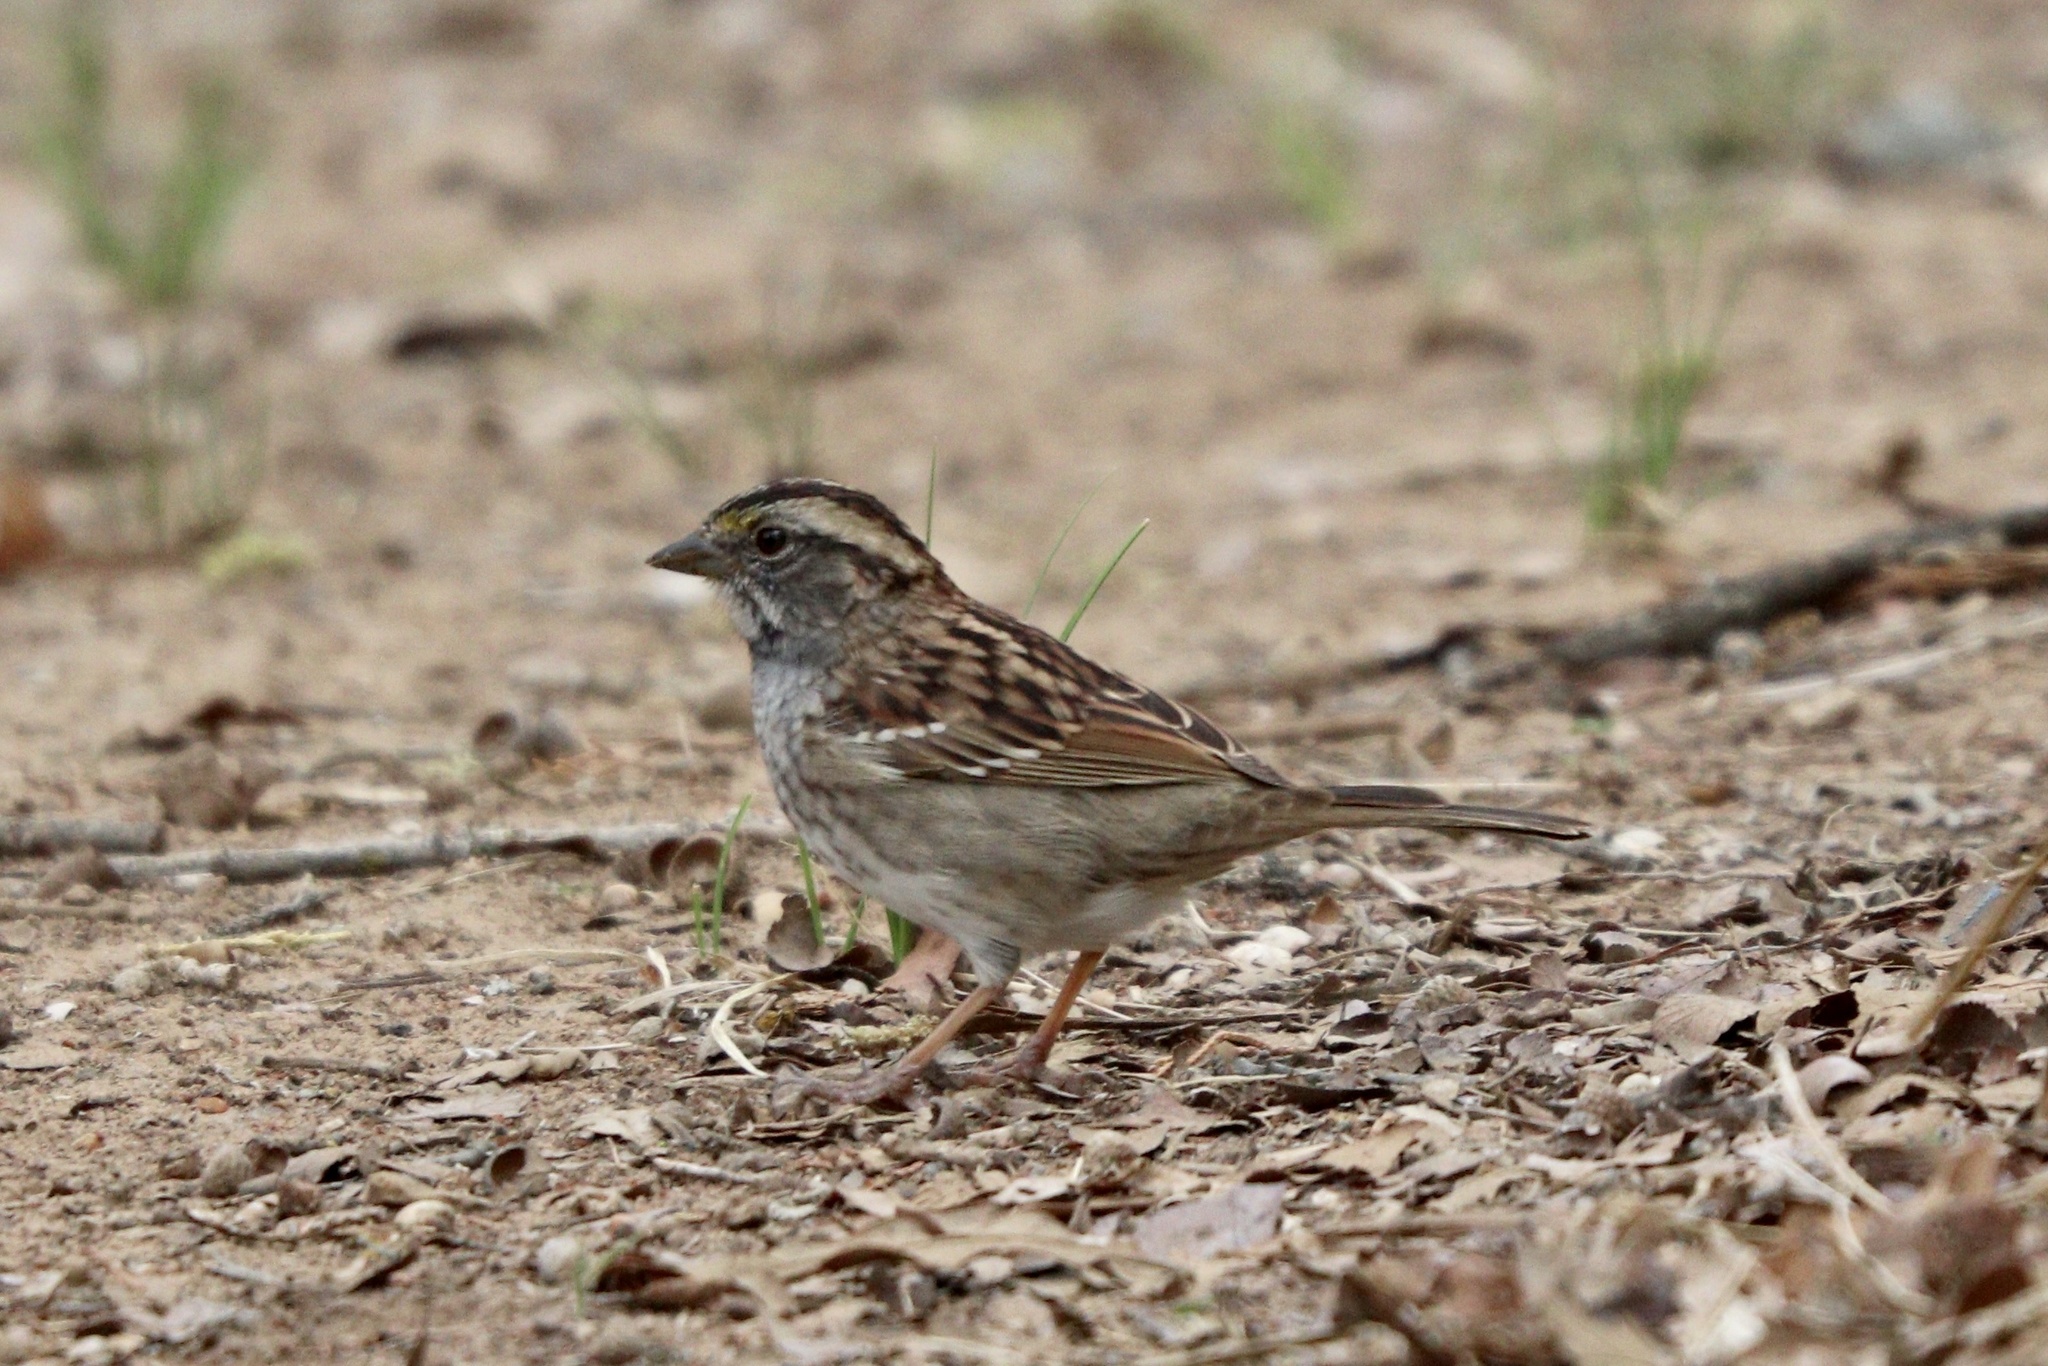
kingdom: Animalia
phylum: Chordata
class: Aves
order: Passeriformes
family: Passerellidae
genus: Zonotrichia
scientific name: Zonotrichia albicollis
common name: White-throated sparrow
